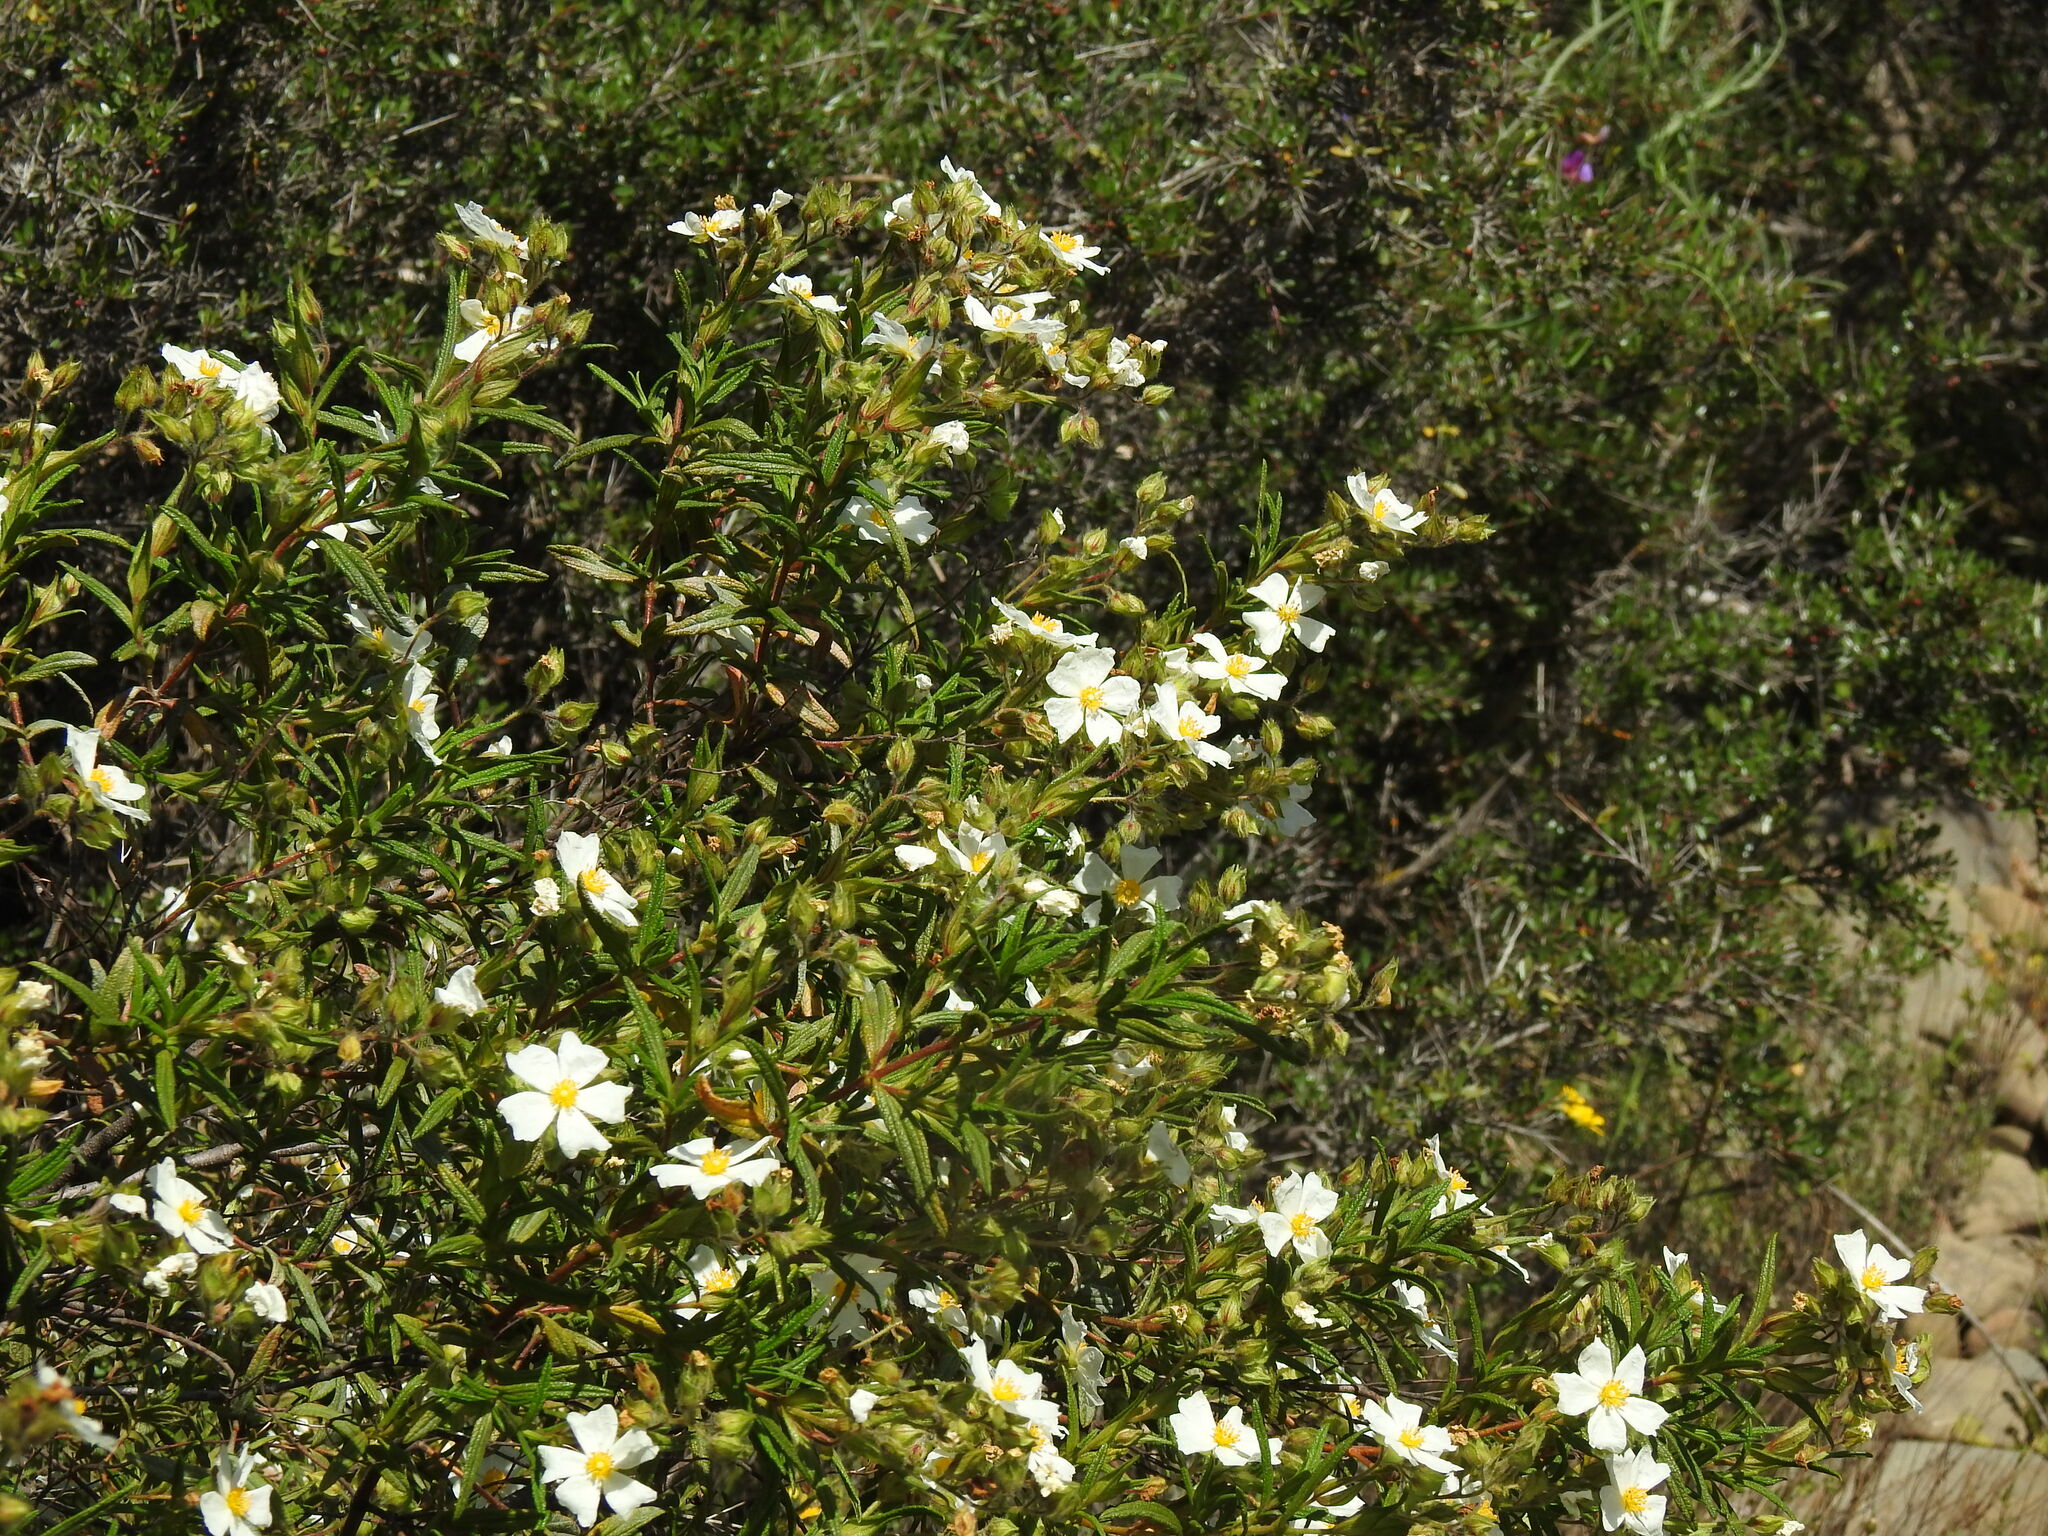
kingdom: Plantae
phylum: Tracheophyta
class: Magnoliopsida
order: Malvales
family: Cistaceae
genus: Cistus
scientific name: Cistus monspeliensis
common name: Montpelier cistus
